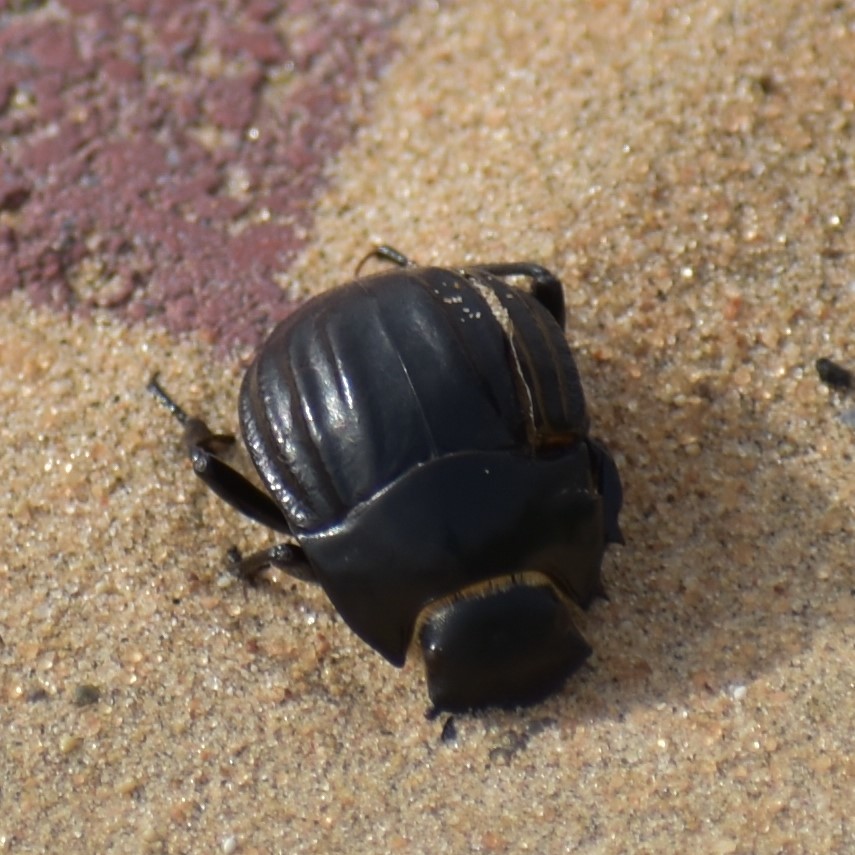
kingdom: Animalia
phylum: Arthropoda
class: Insecta
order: Coleoptera
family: Tenebrionidae
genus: Erodius
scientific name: Erodius
